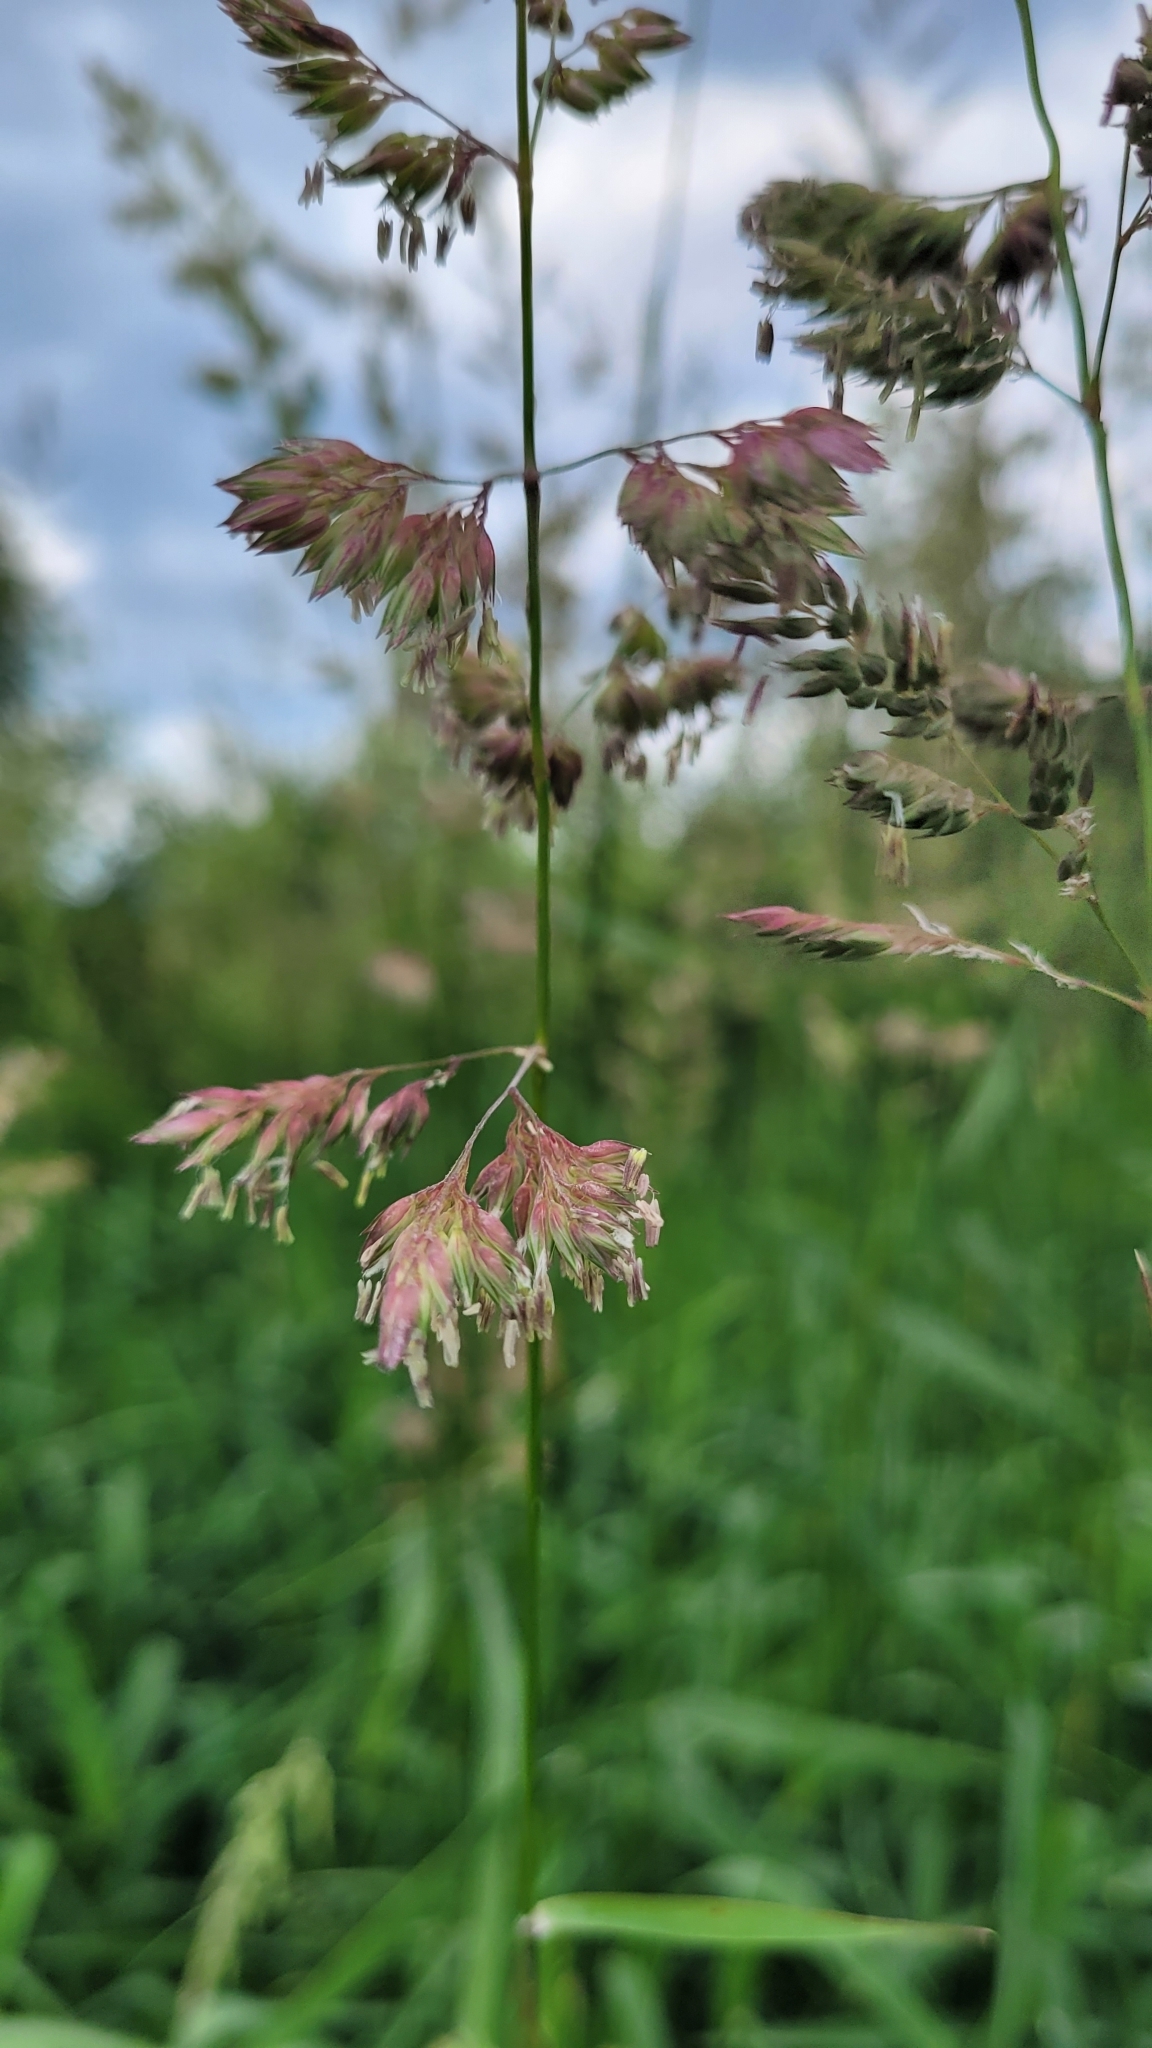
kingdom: Plantae
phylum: Tracheophyta
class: Liliopsida
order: Poales
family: Poaceae
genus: Phalaris
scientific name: Phalaris arundinacea
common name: Reed canary-grass
